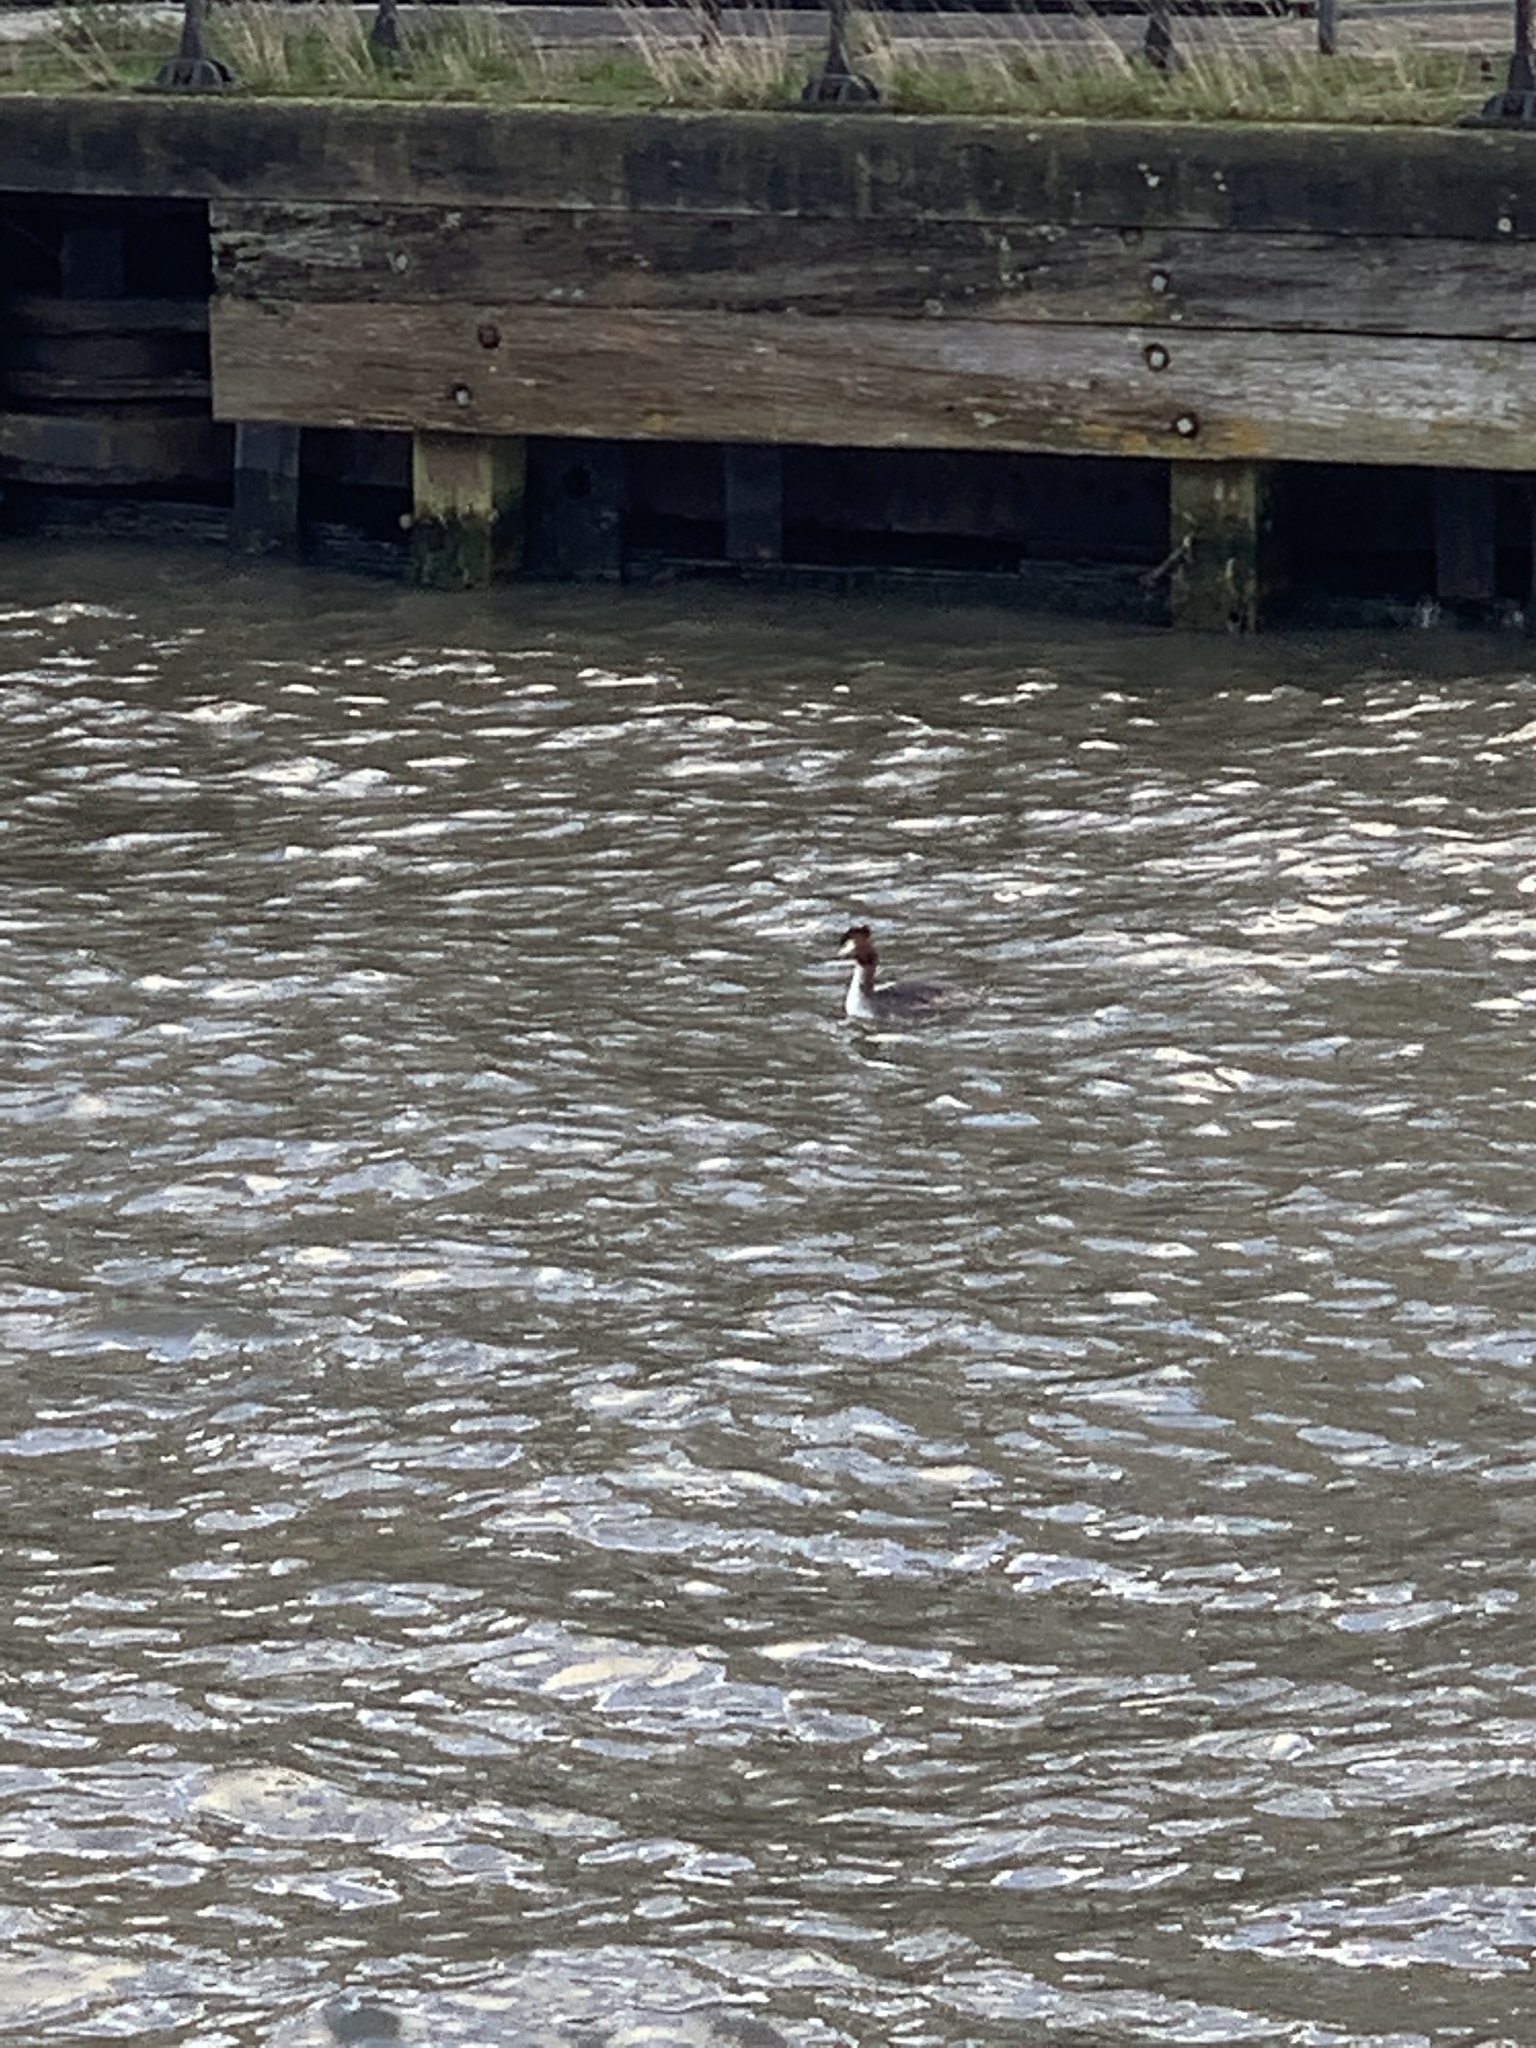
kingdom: Animalia
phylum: Chordata
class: Aves
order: Podicipediformes
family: Podicipedidae
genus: Podiceps
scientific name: Podiceps cristatus
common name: Great crested grebe
